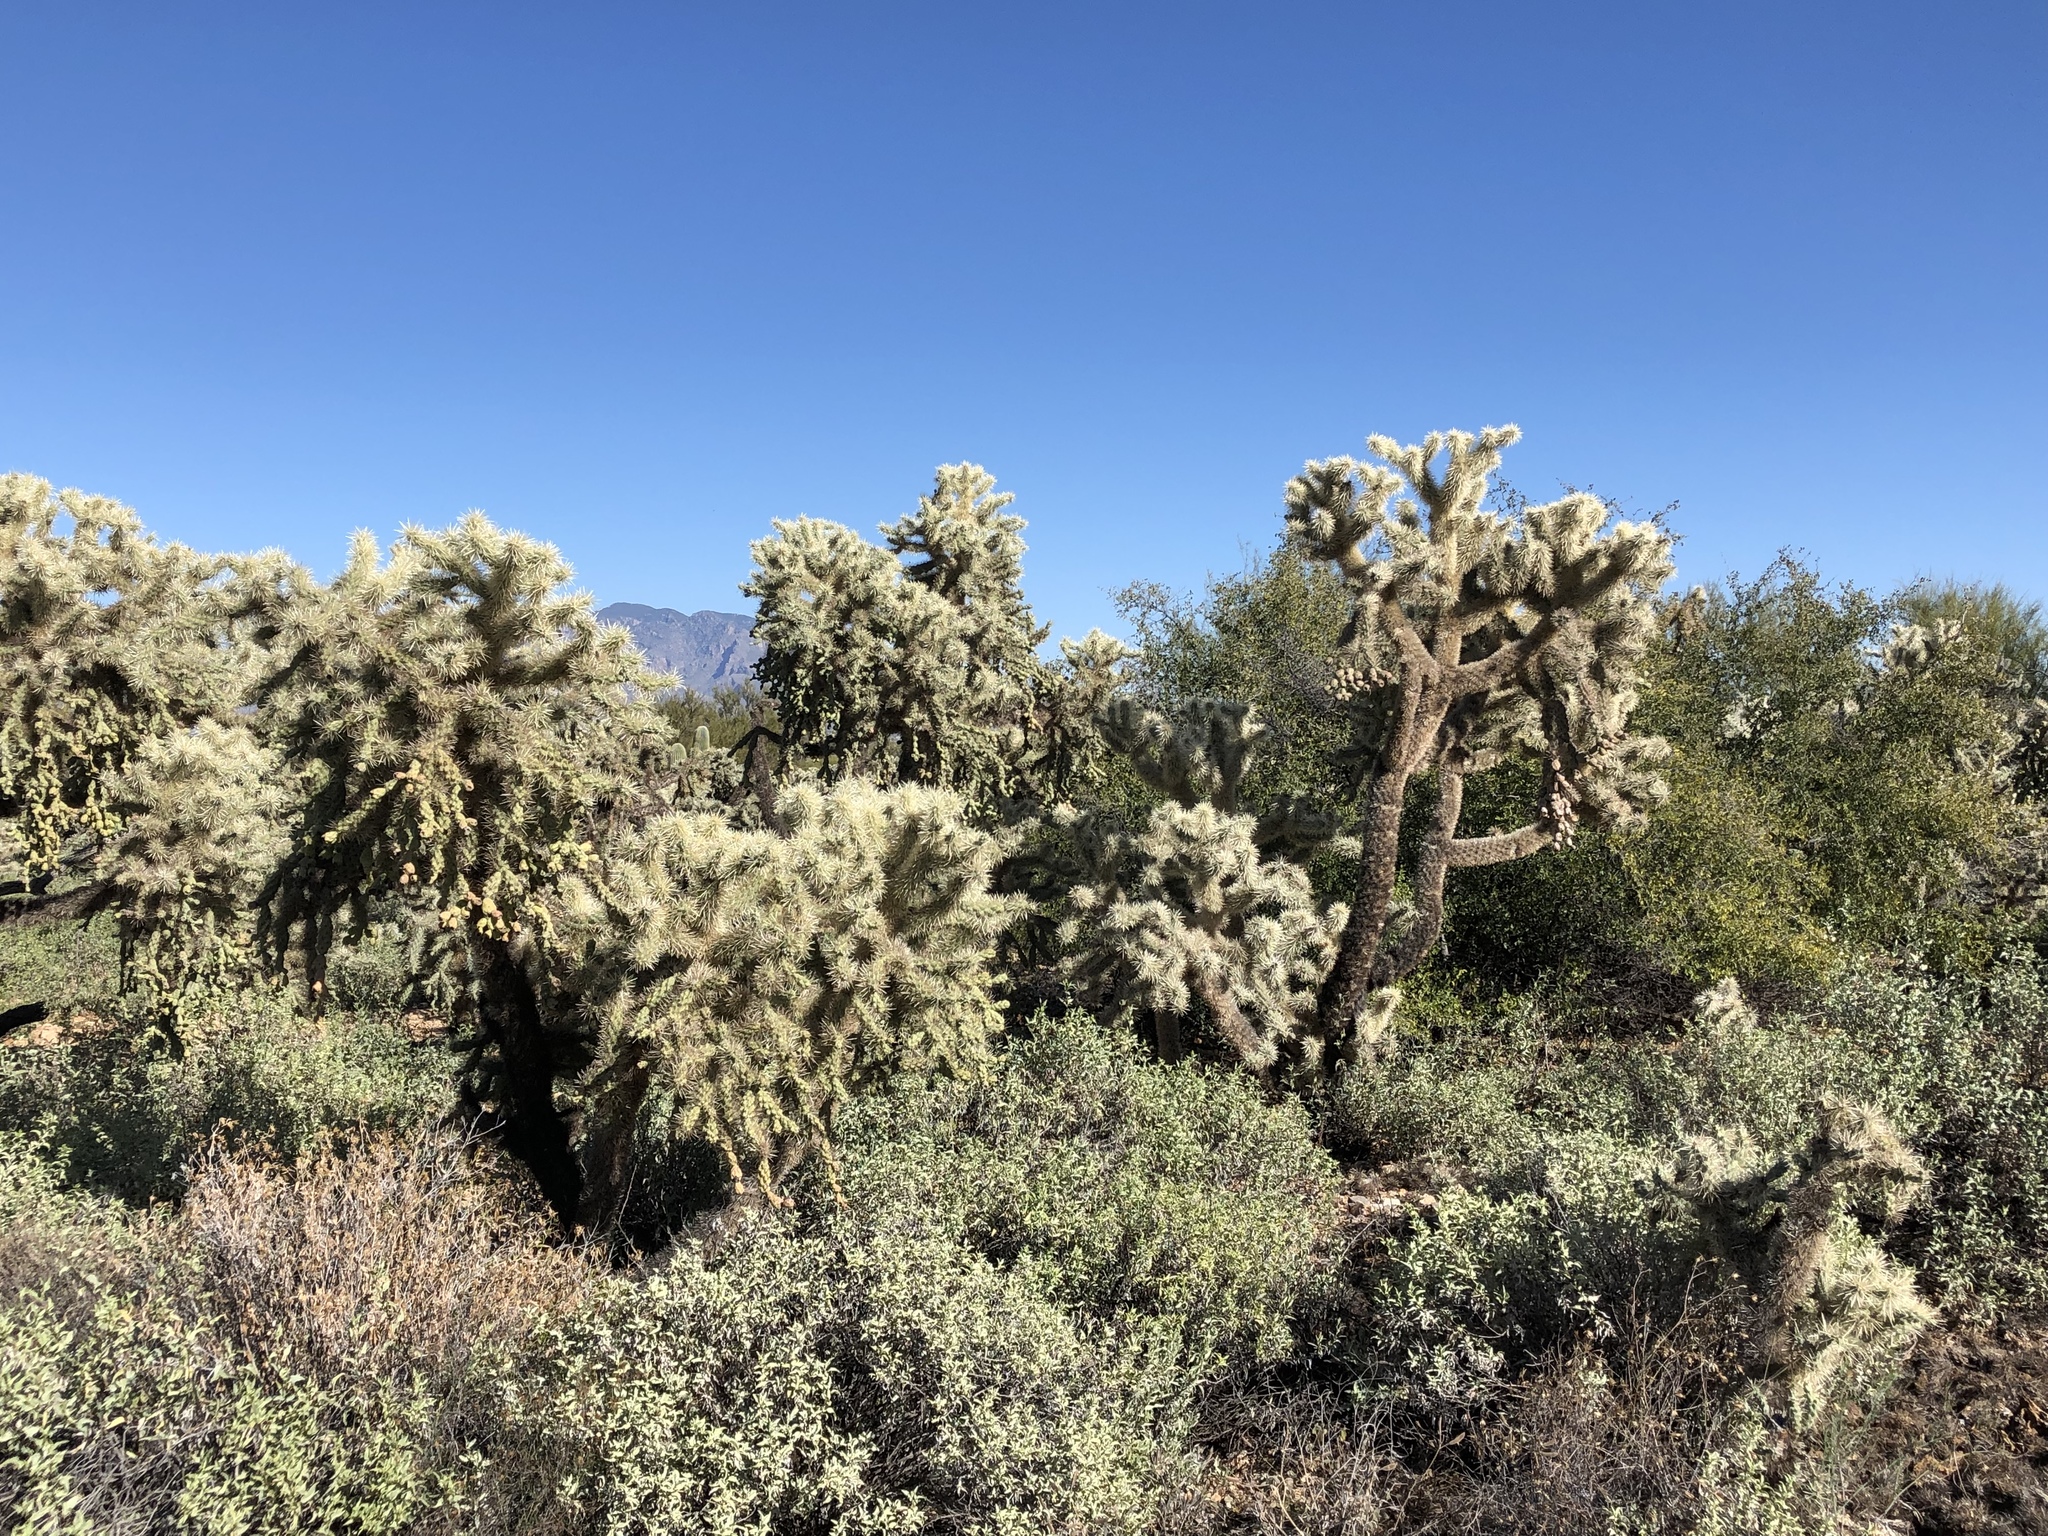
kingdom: Plantae
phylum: Tracheophyta
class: Magnoliopsida
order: Caryophyllales
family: Cactaceae
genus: Cylindropuntia
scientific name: Cylindropuntia fulgida
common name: Jumping cholla
